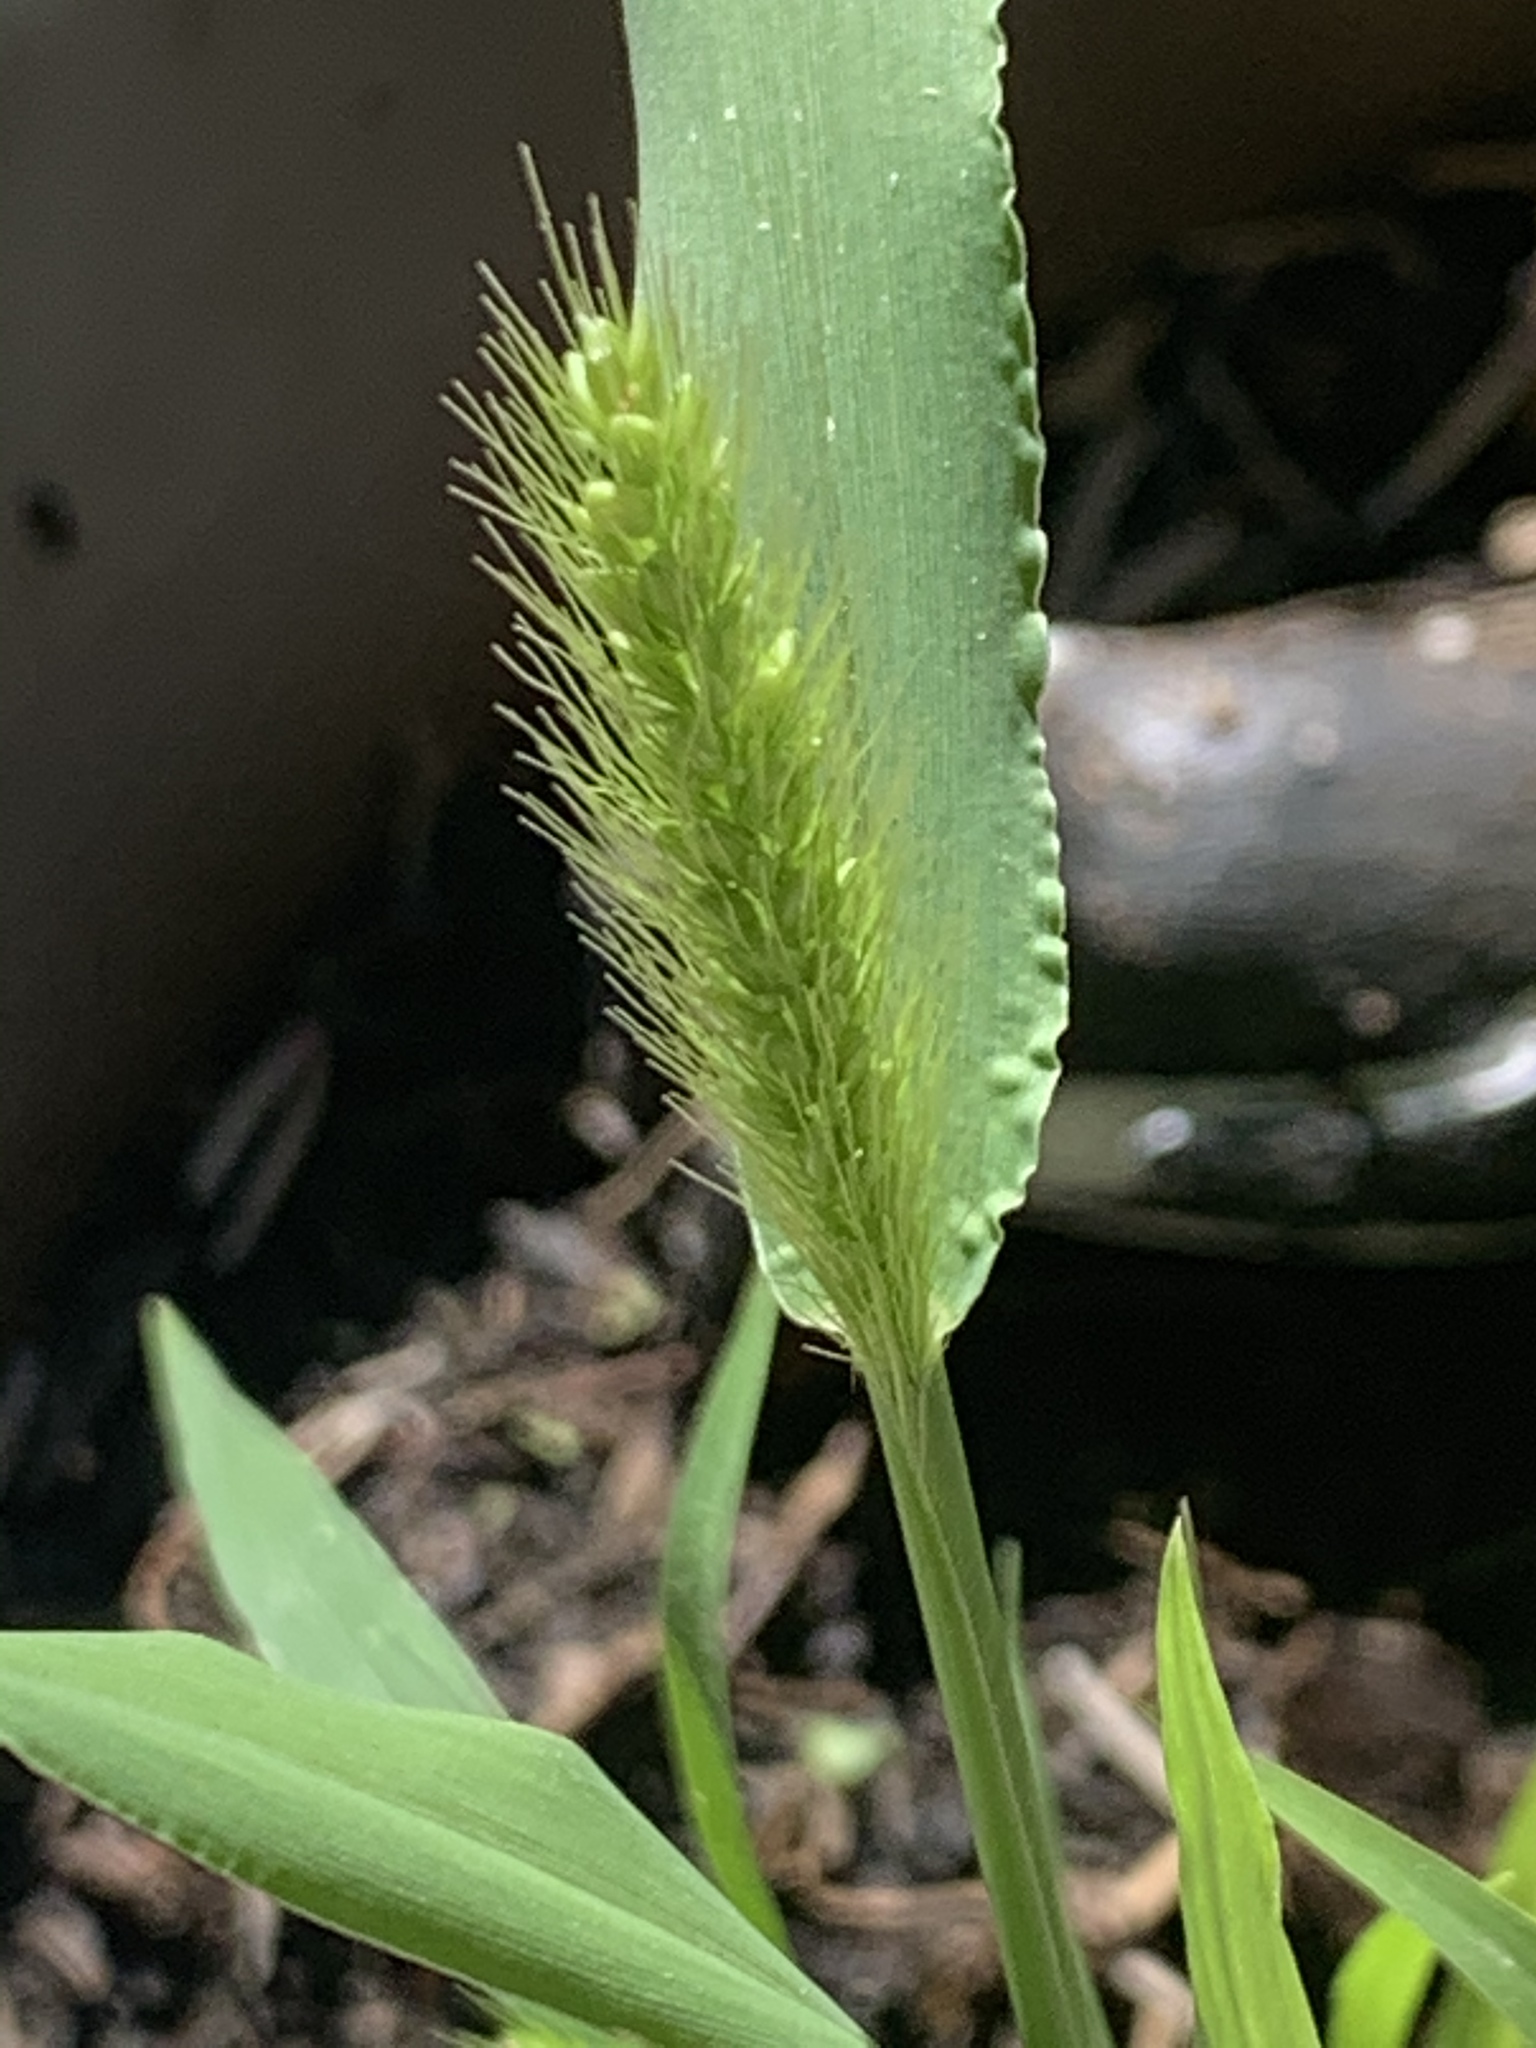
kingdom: Plantae
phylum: Tracheophyta
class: Liliopsida
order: Poales
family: Poaceae
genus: Setaria
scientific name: Setaria viridis
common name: Green bristlegrass
